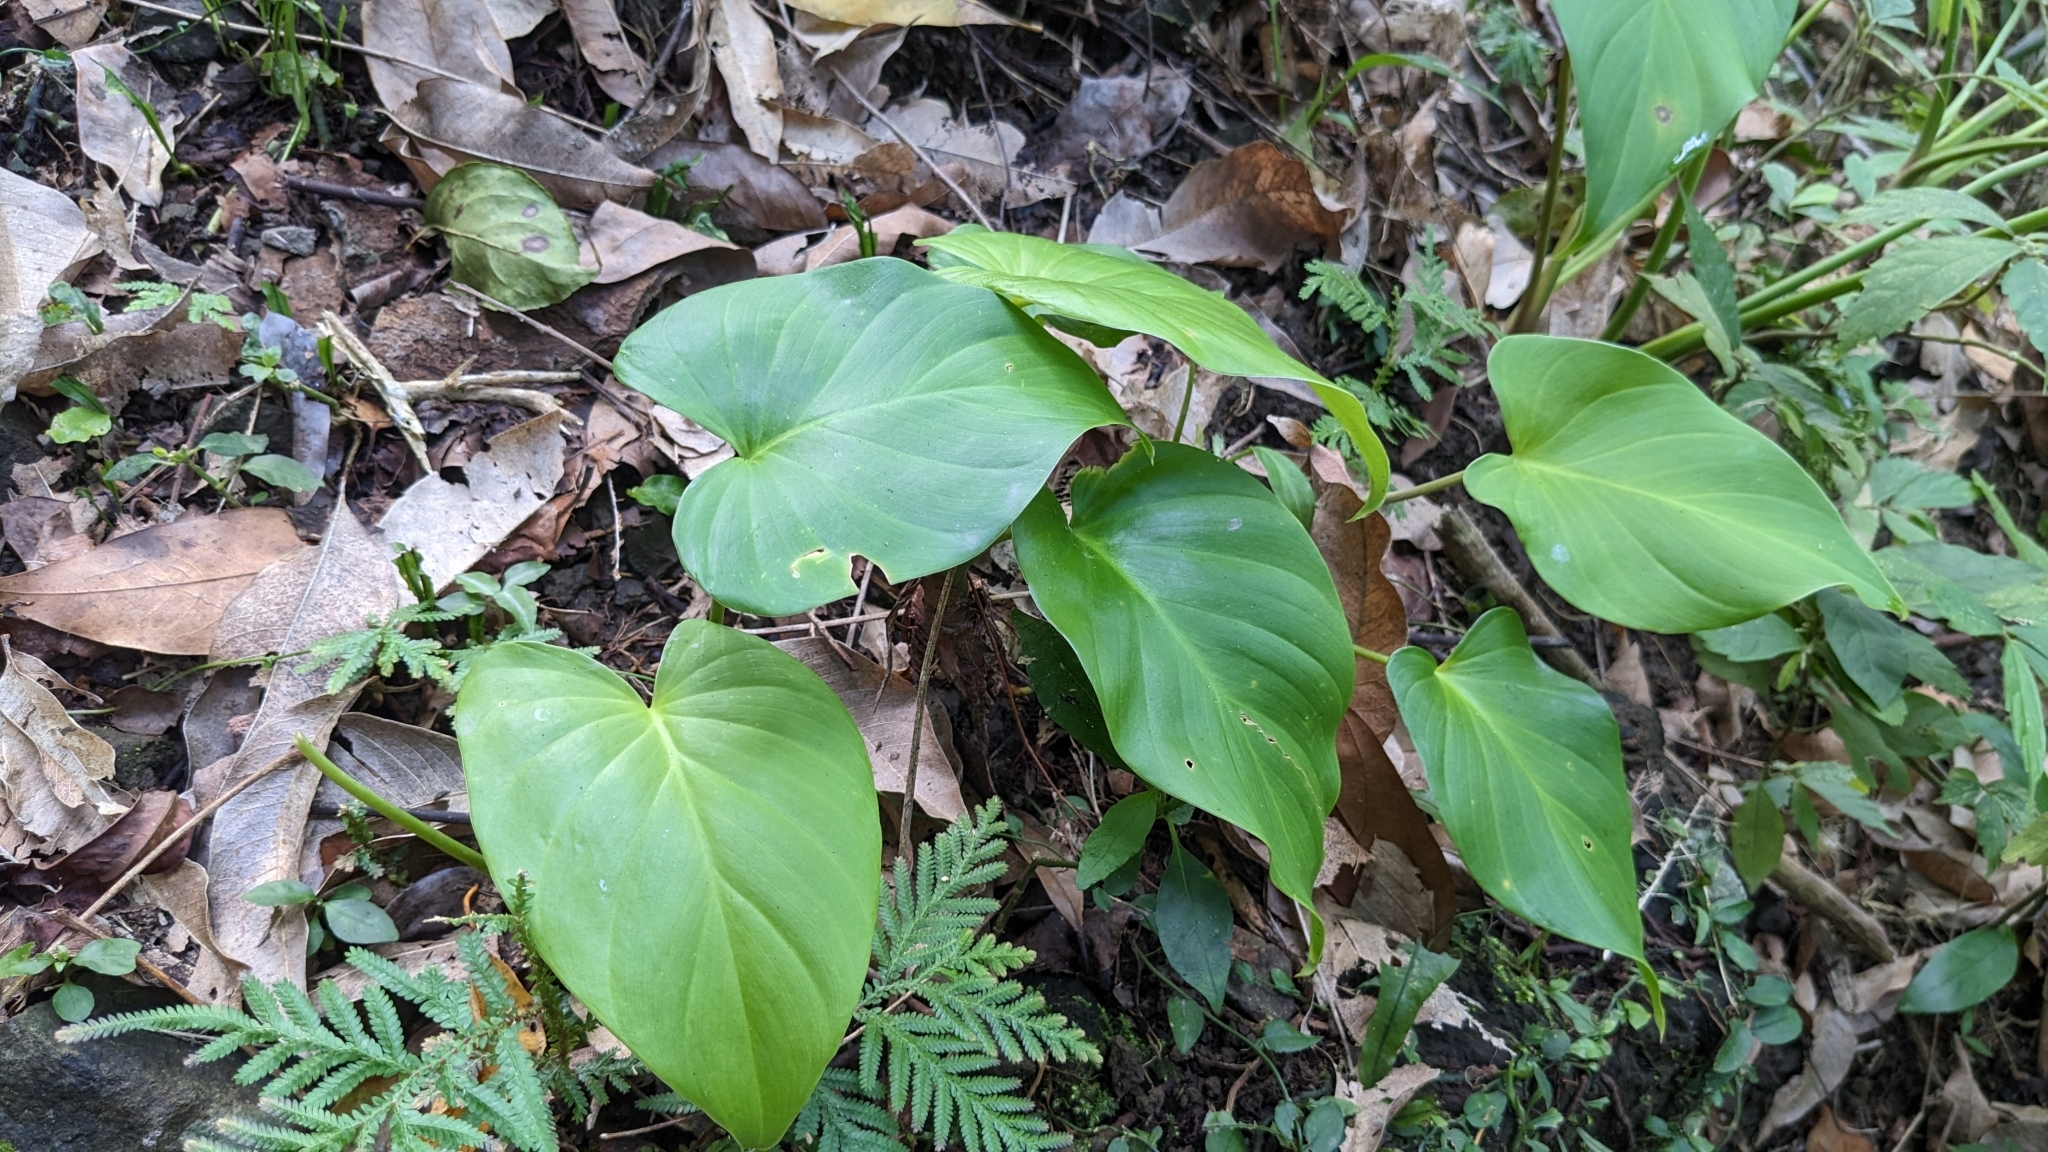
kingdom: Plantae
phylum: Tracheophyta
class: Liliopsida
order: Alismatales
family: Araceae
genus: Homalomena
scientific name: Homalomena philippinensis
